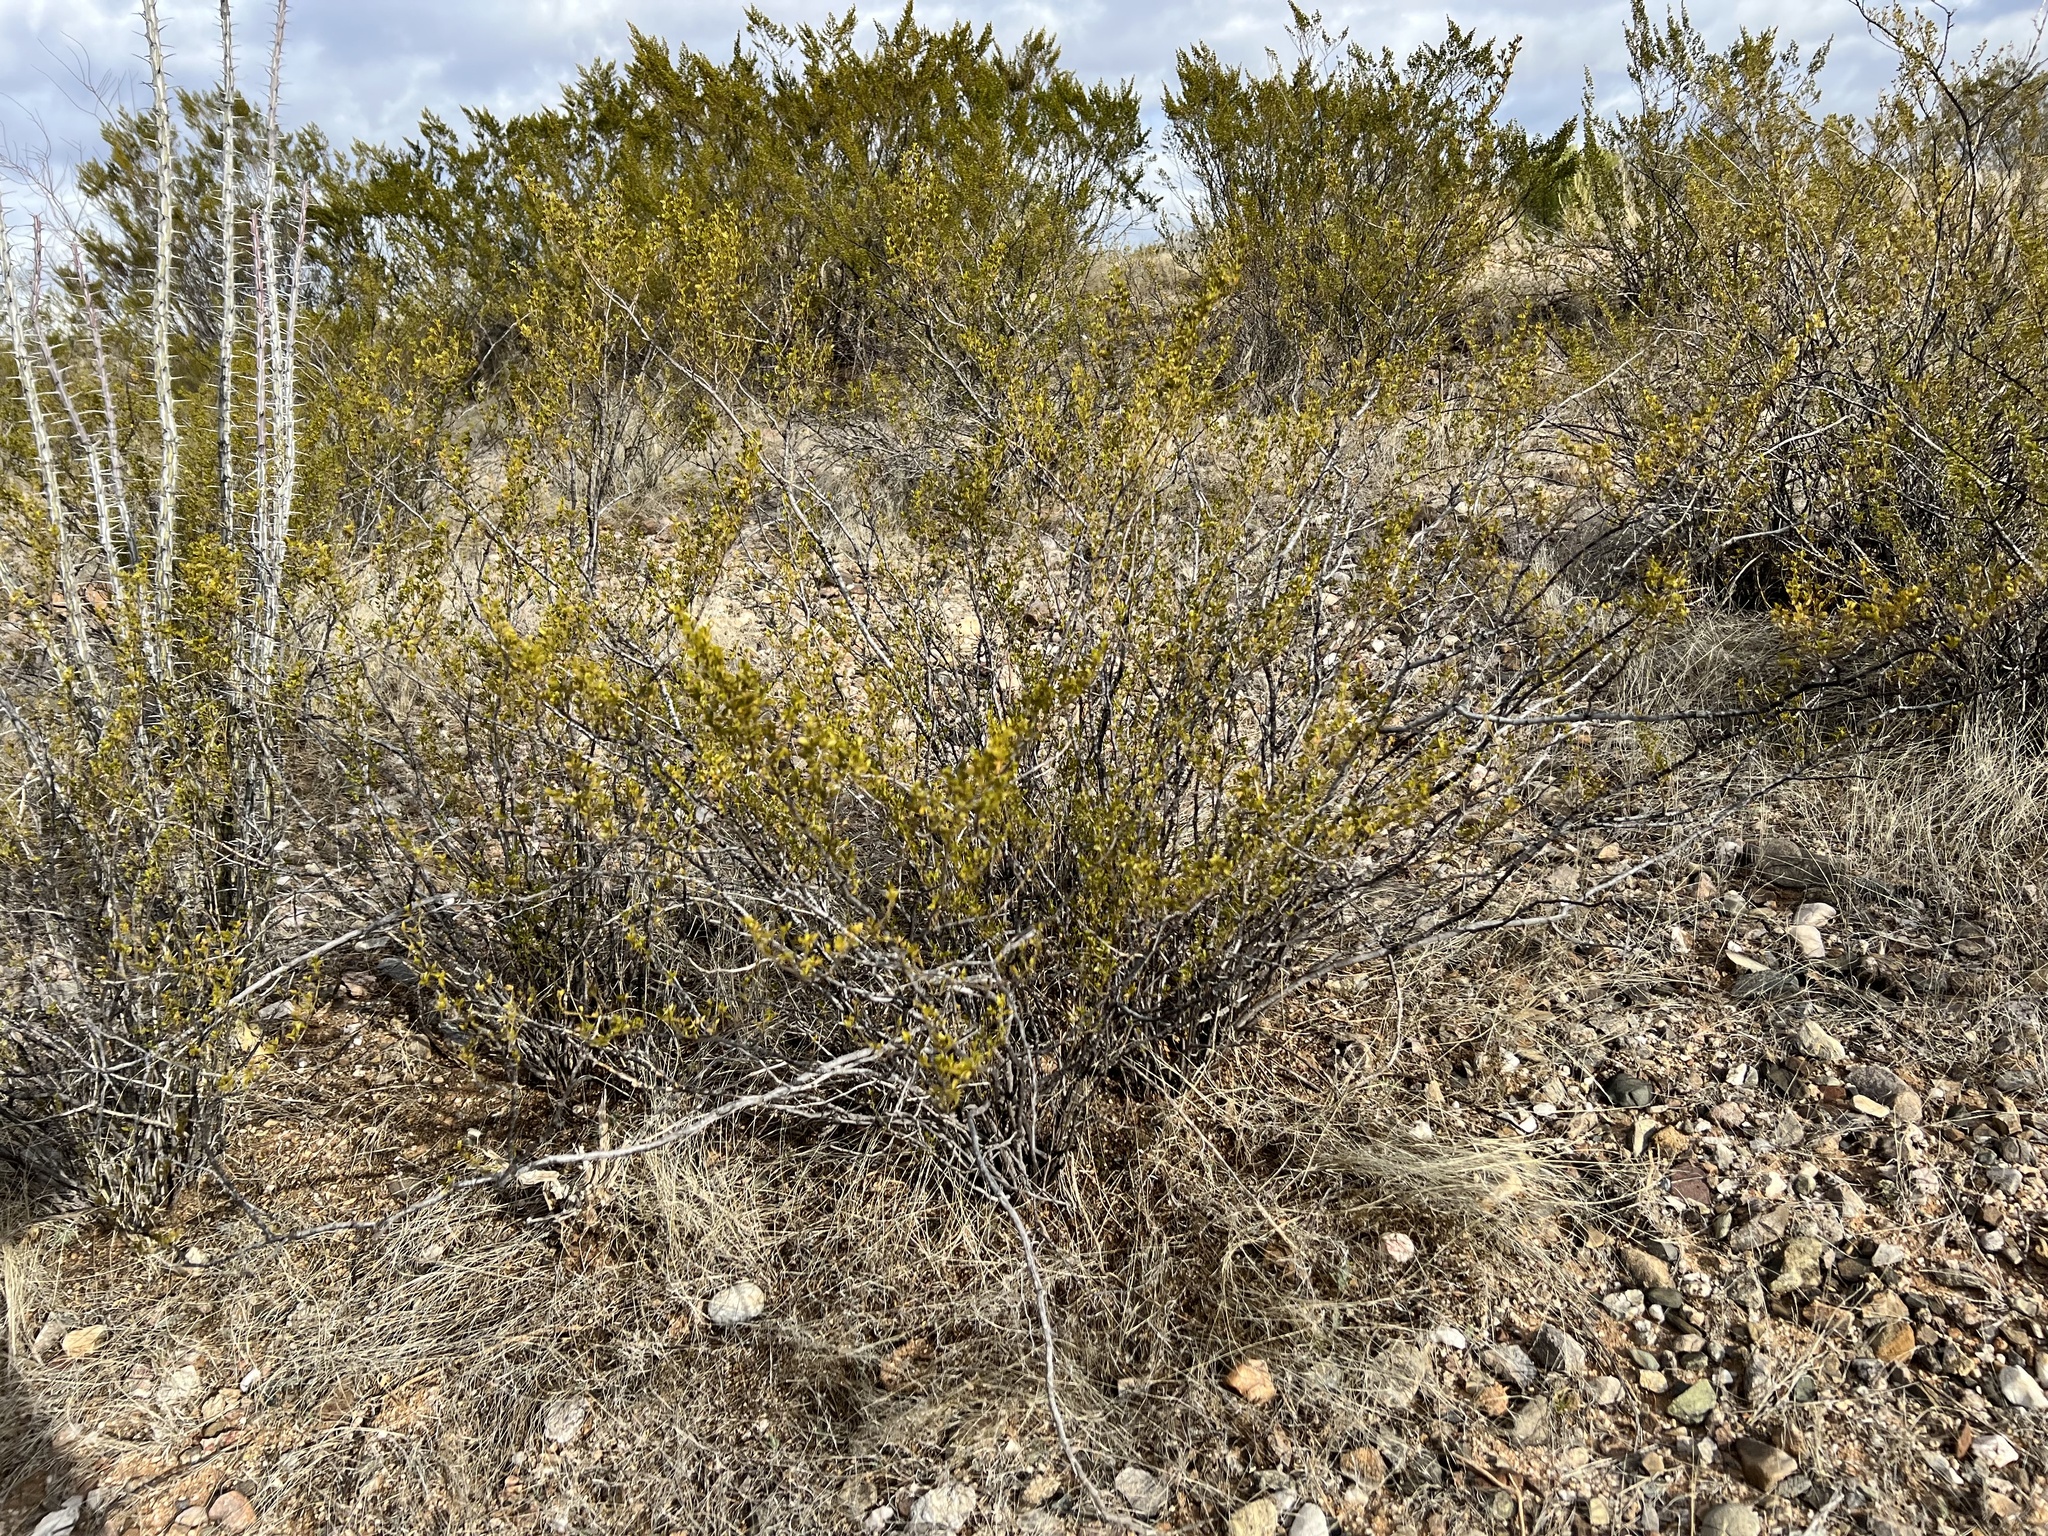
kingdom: Plantae
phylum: Tracheophyta
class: Magnoliopsida
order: Zygophyllales
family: Zygophyllaceae
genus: Larrea
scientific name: Larrea tridentata
